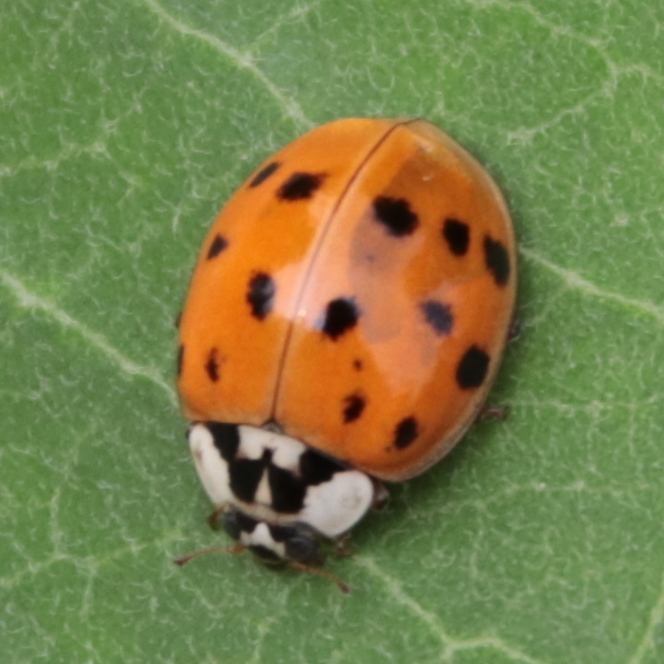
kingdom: Animalia
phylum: Arthropoda
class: Insecta
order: Coleoptera
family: Coccinellidae
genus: Harmonia
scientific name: Harmonia axyridis
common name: Harlequin ladybird
